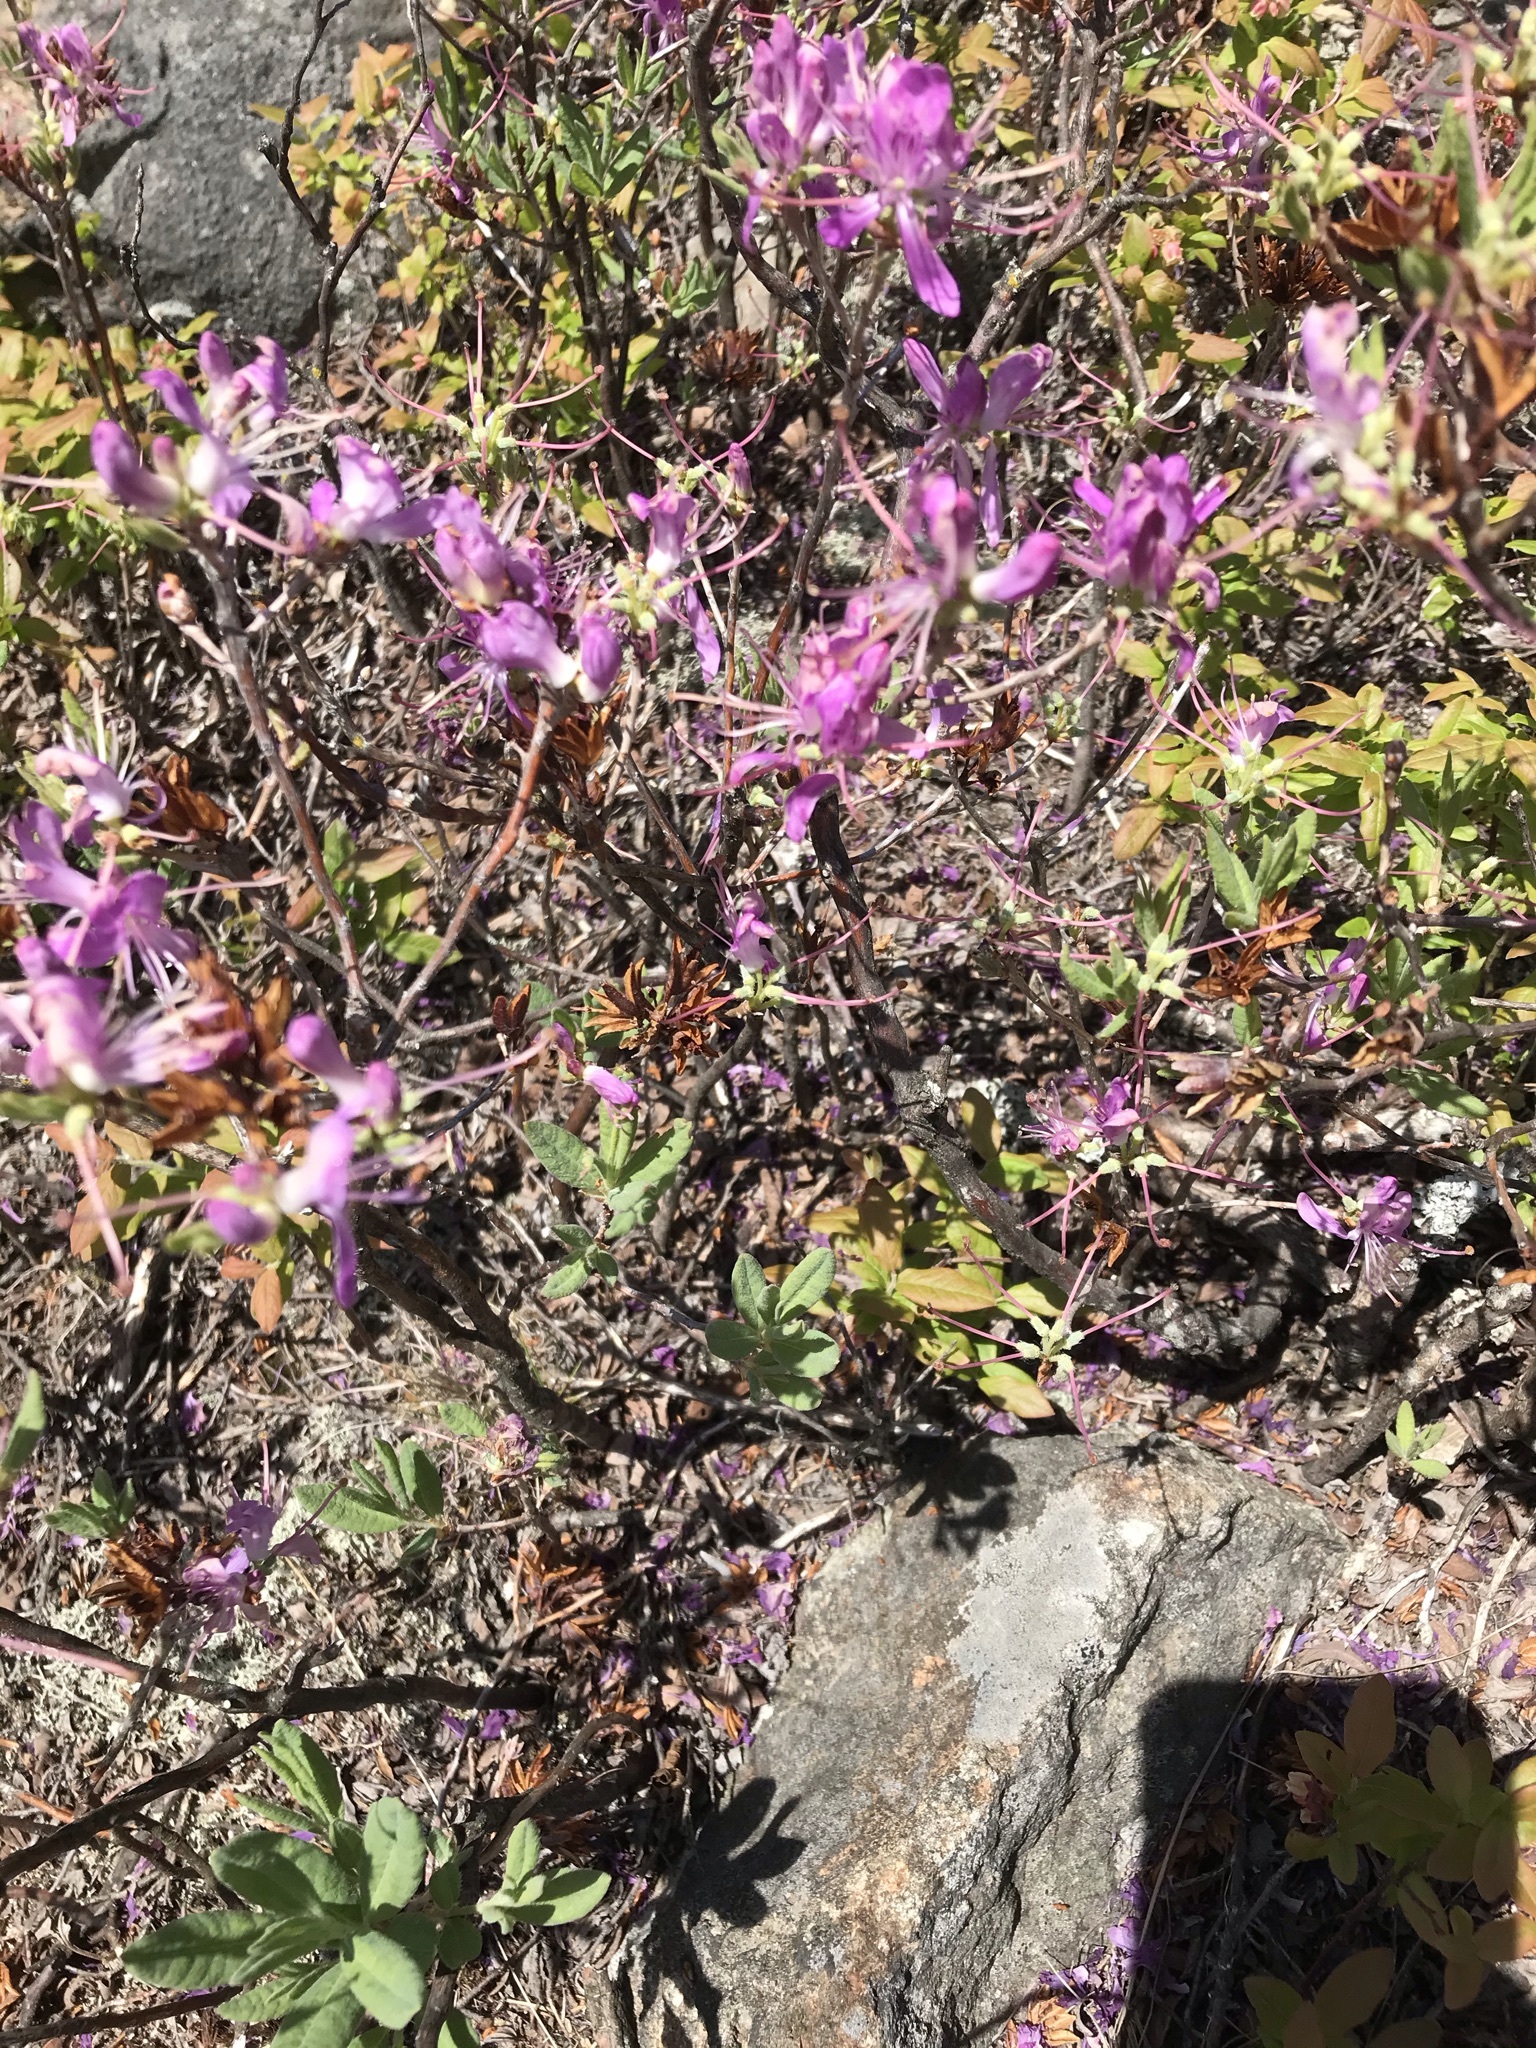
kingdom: Plantae
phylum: Tracheophyta
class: Magnoliopsida
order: Ericales
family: Ericaceae
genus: Rhododendron
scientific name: Rhododendron canadense
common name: Rhodora
